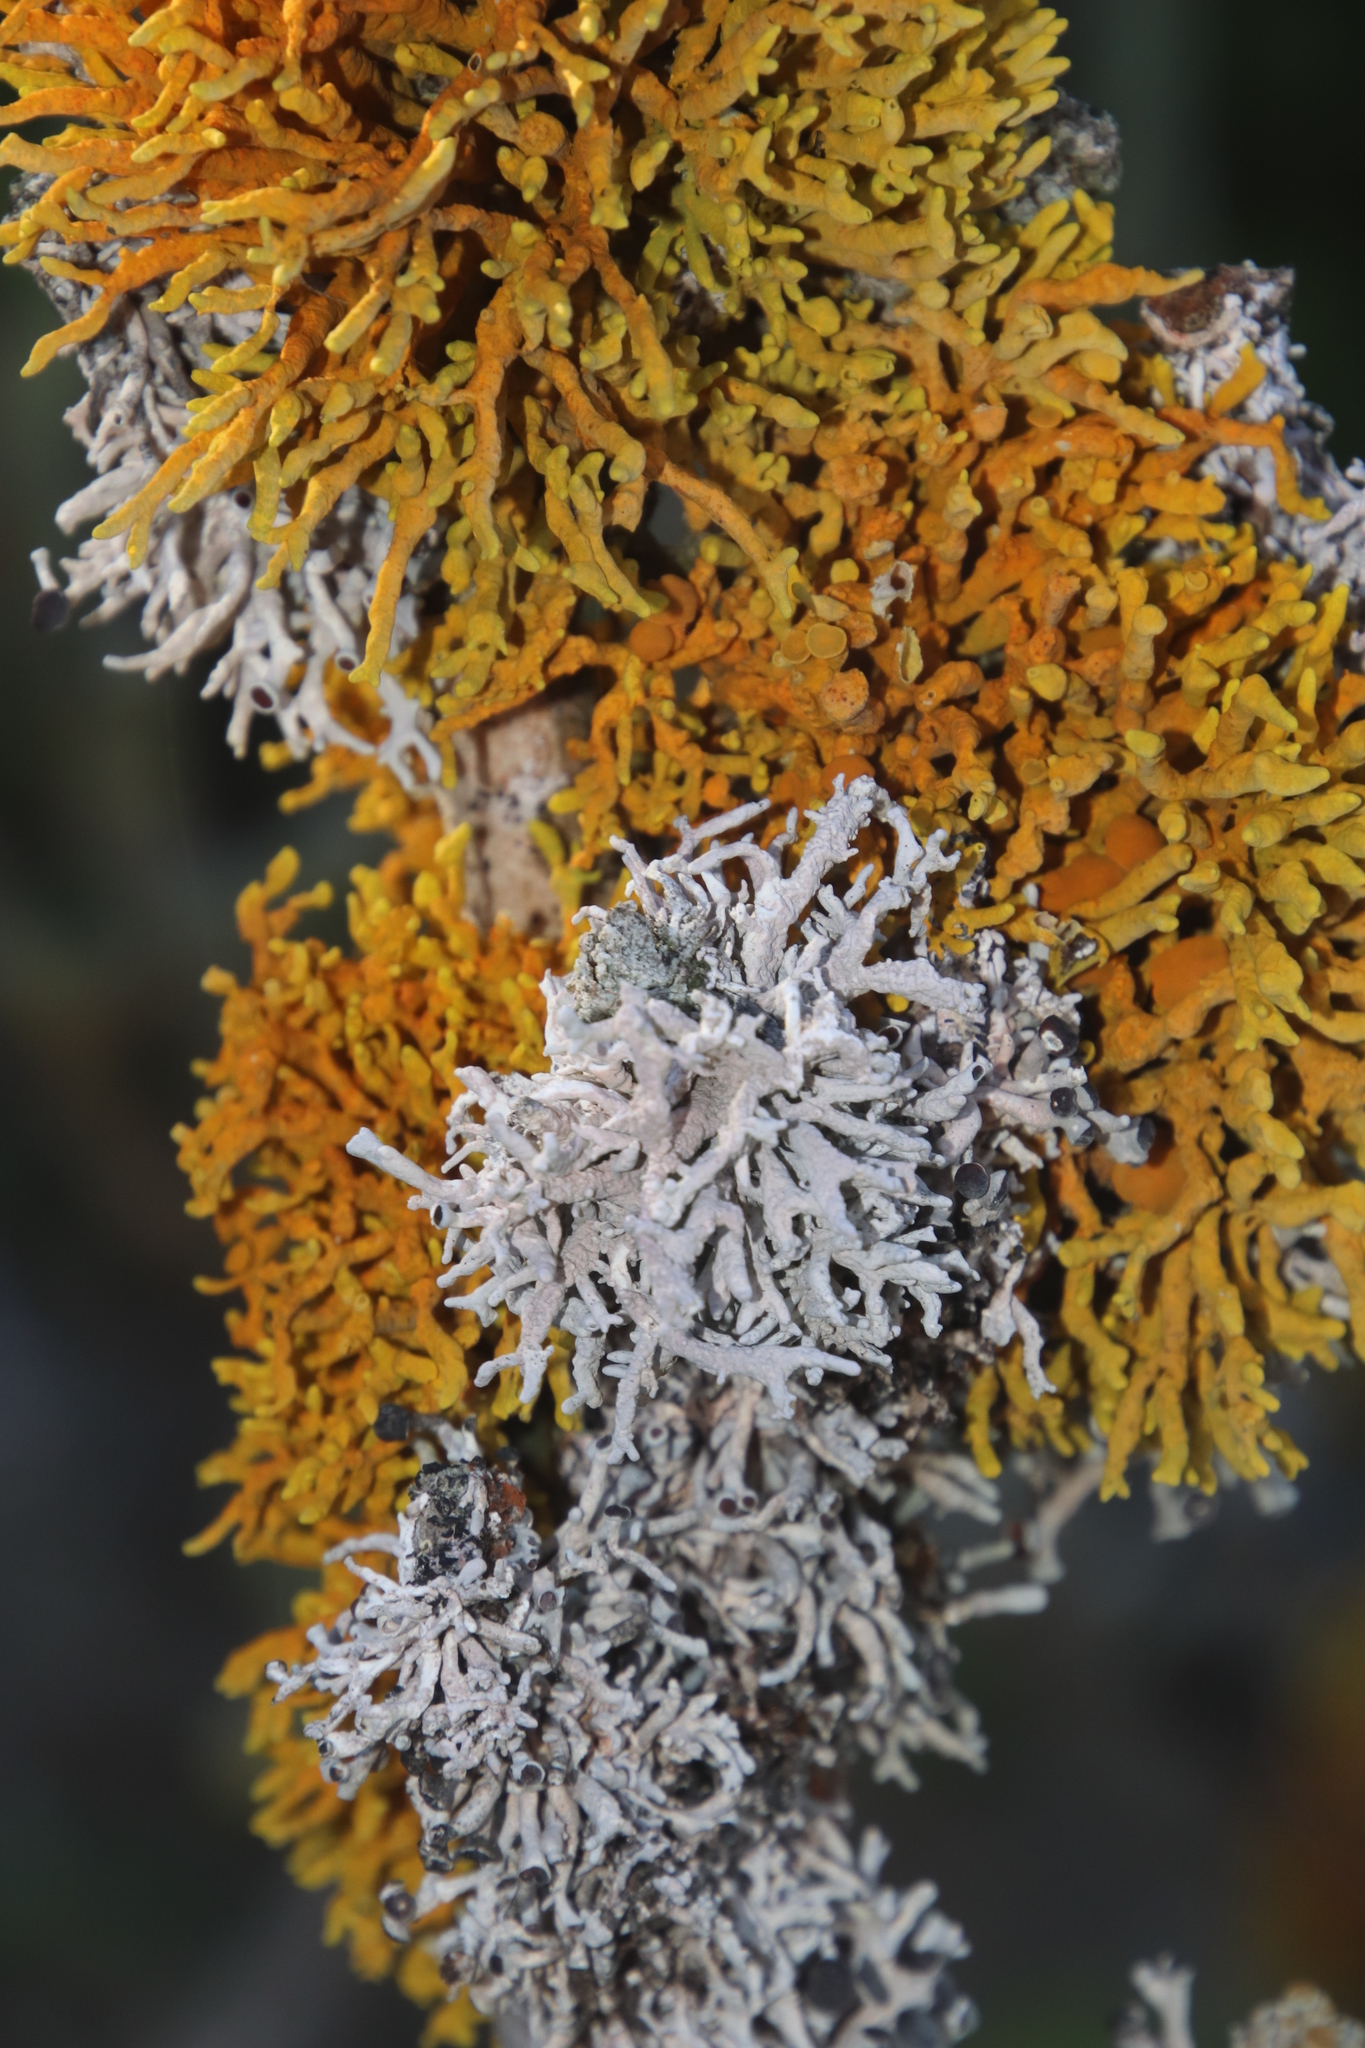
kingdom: Fungi
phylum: Ascomycota
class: Arthoniomycetes
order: Arthoniales
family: Opegraphaceae
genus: Combea
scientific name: Combea mollusca
